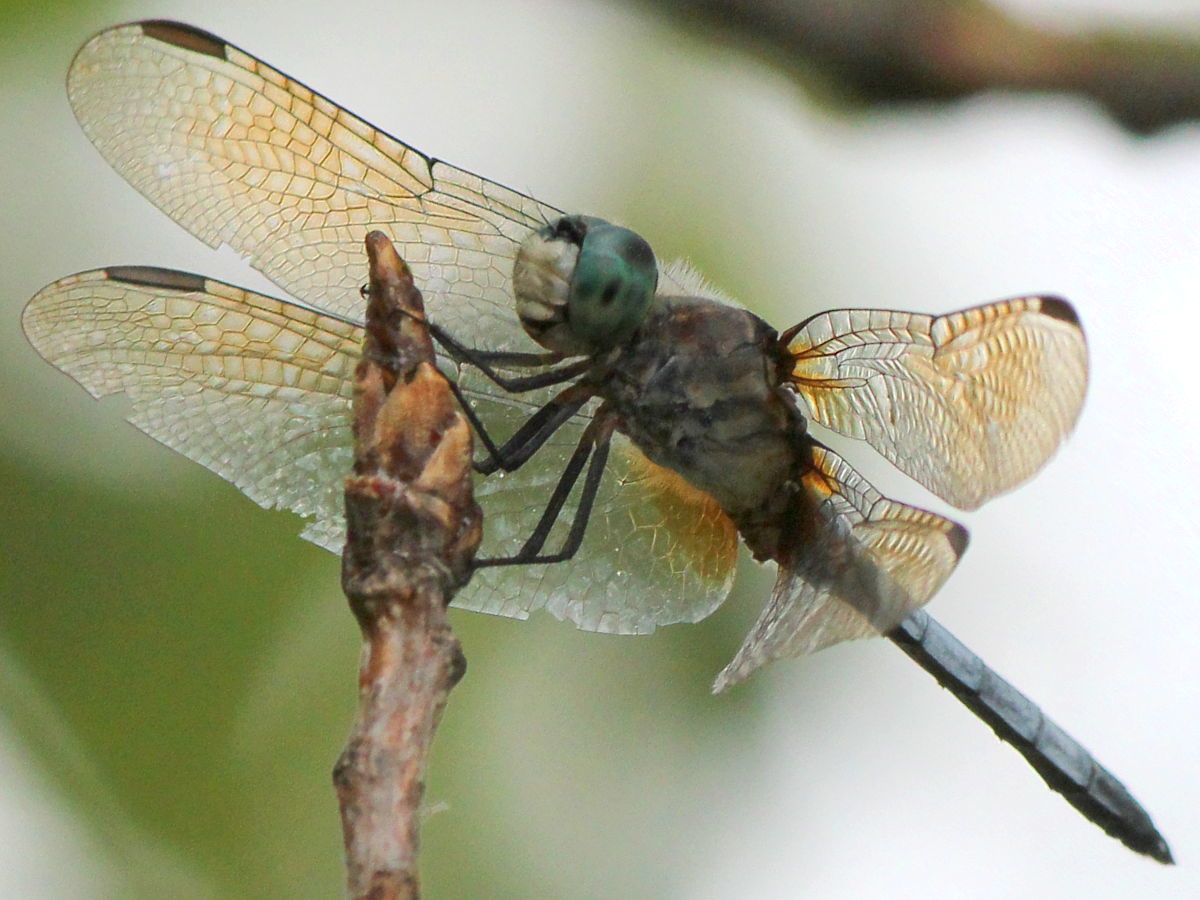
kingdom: Animalia
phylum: Arthropoda
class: Insecta
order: Odonata
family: Libellulidae
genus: Pachydiplax
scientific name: Pachydiplax longipennis
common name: Blue dasher
